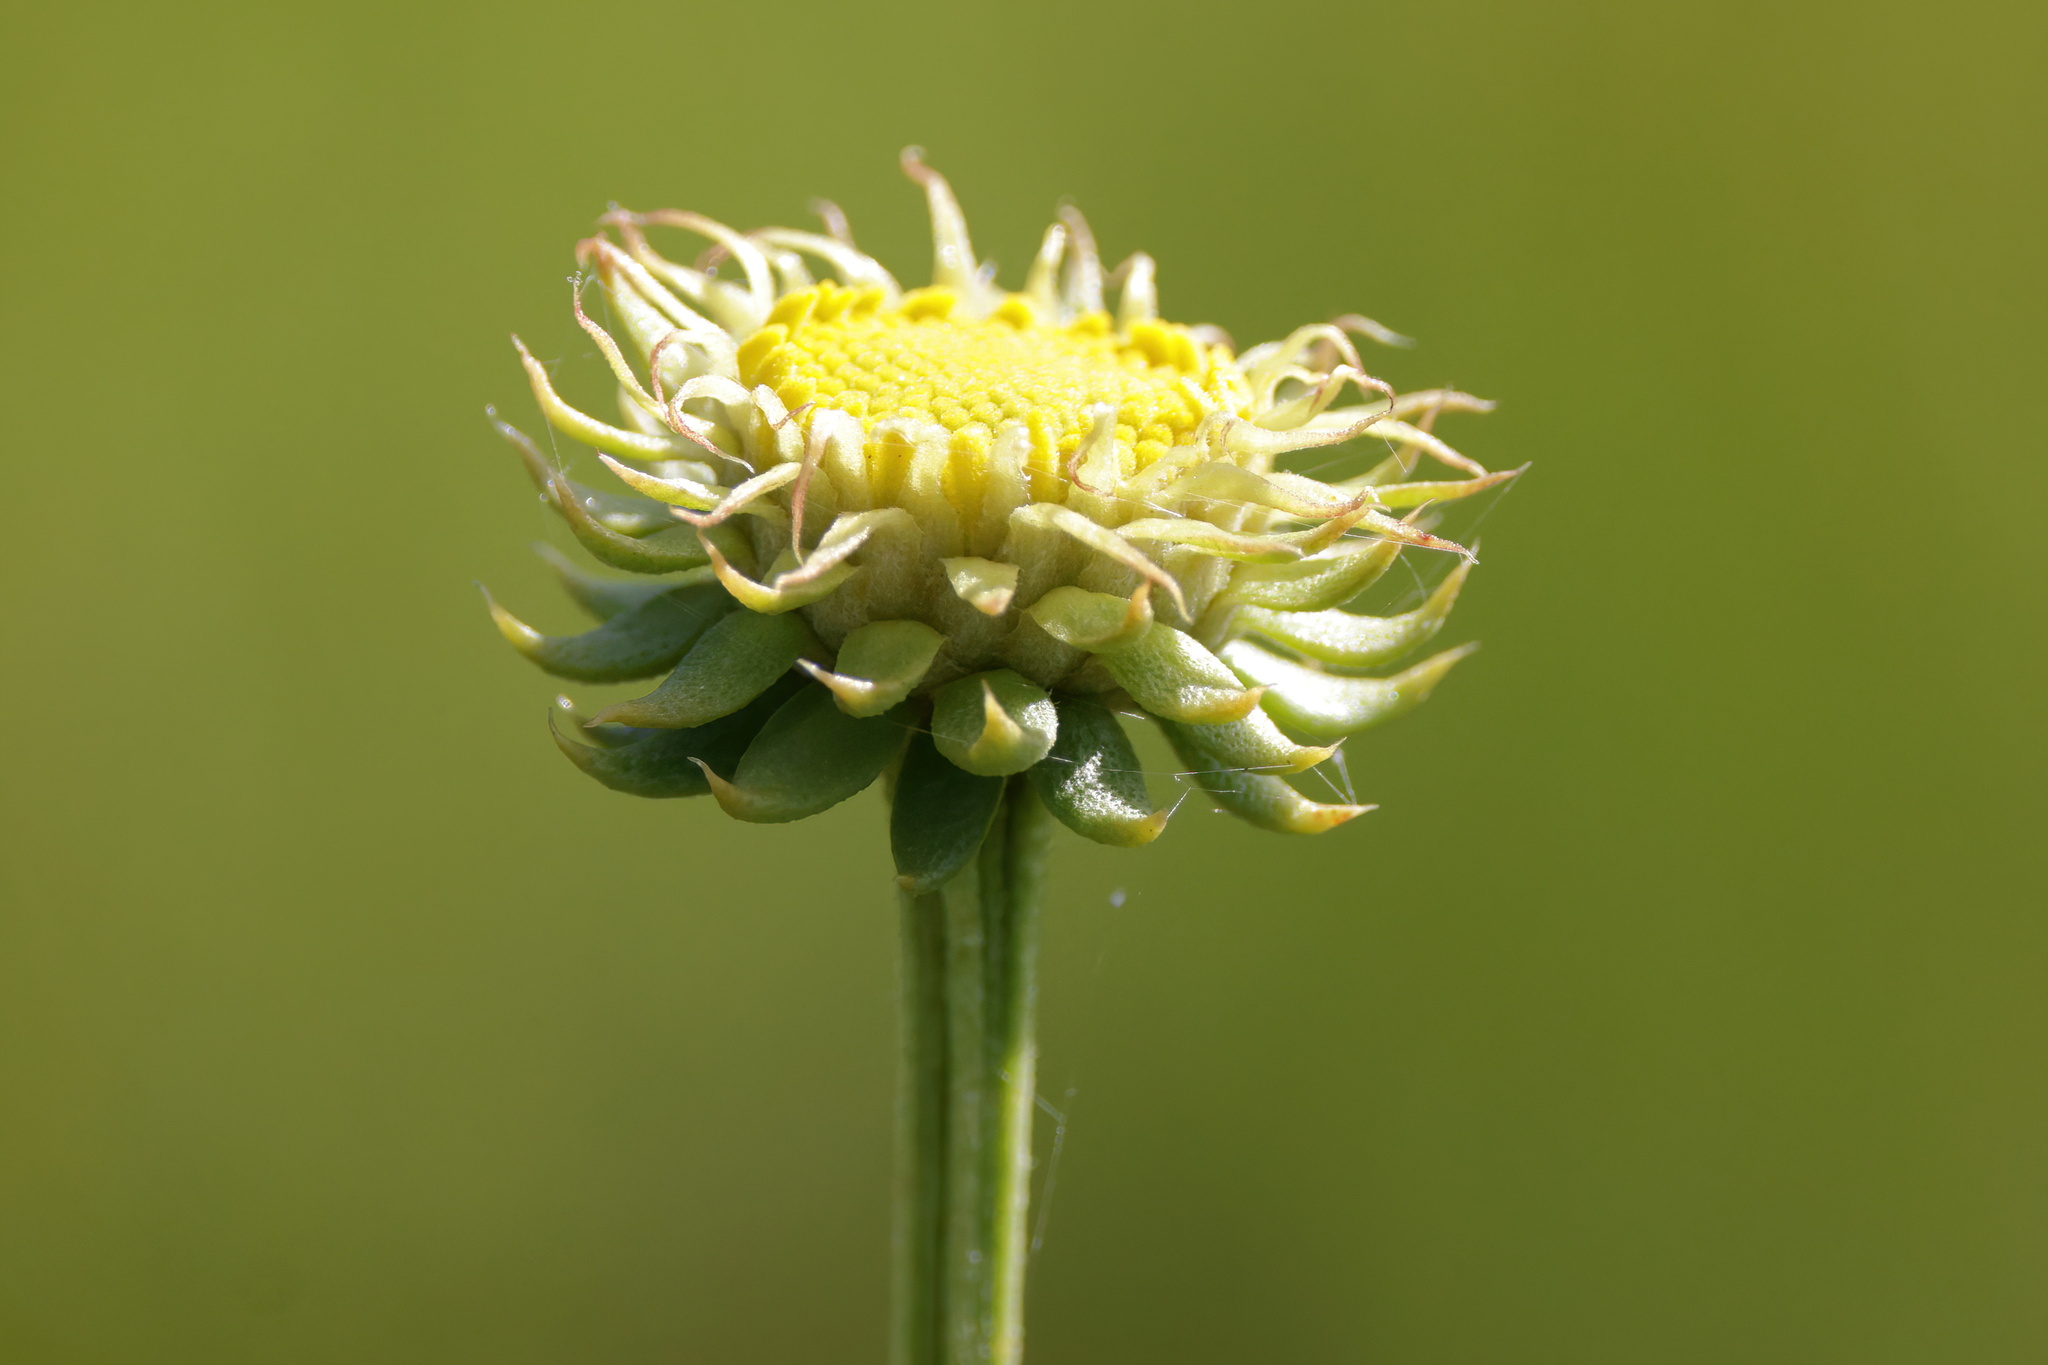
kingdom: Plantae
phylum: Tracheophyta
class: Magnoliopsida
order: Asterales
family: Asteraceae
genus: Balduina
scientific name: Balduina uniflora
